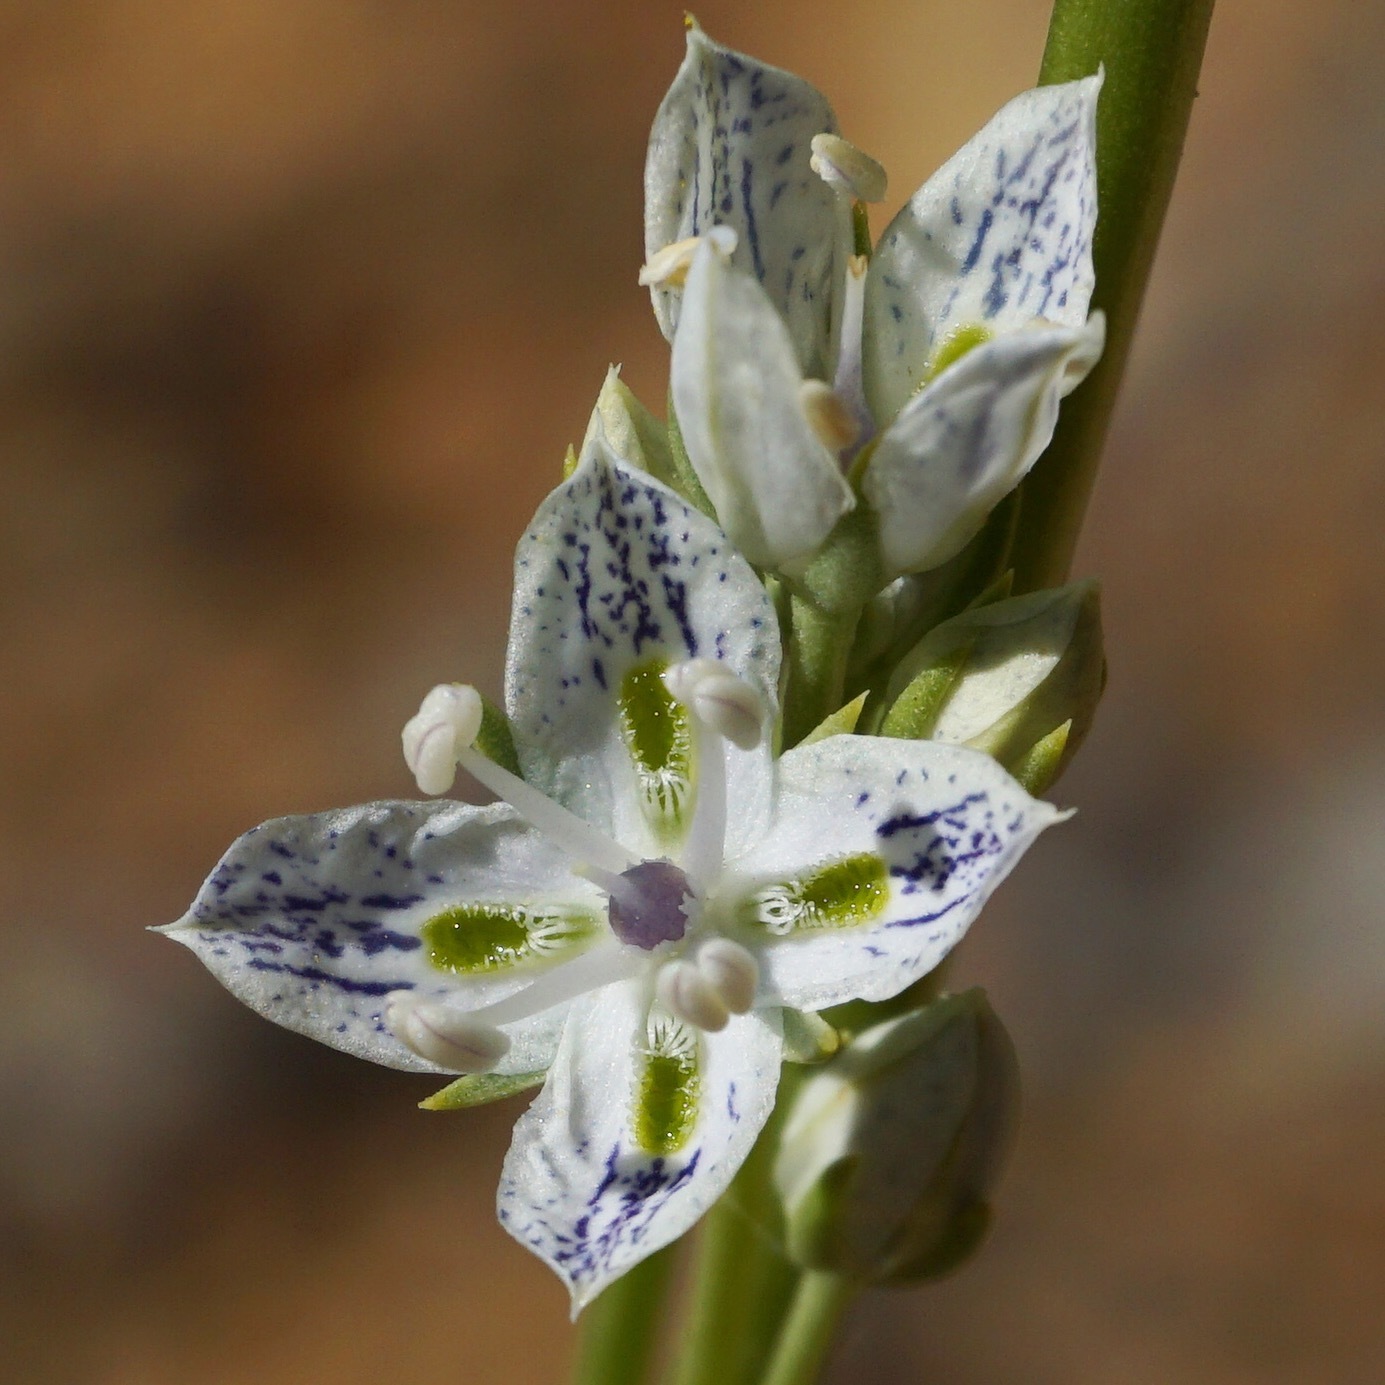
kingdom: Plantae
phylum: Tracheophyta
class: Magnoliopsida
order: Gentianales
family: Gentianaceae
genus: Frasera
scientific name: Frasera albicaulis
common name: Cusick's frasera
